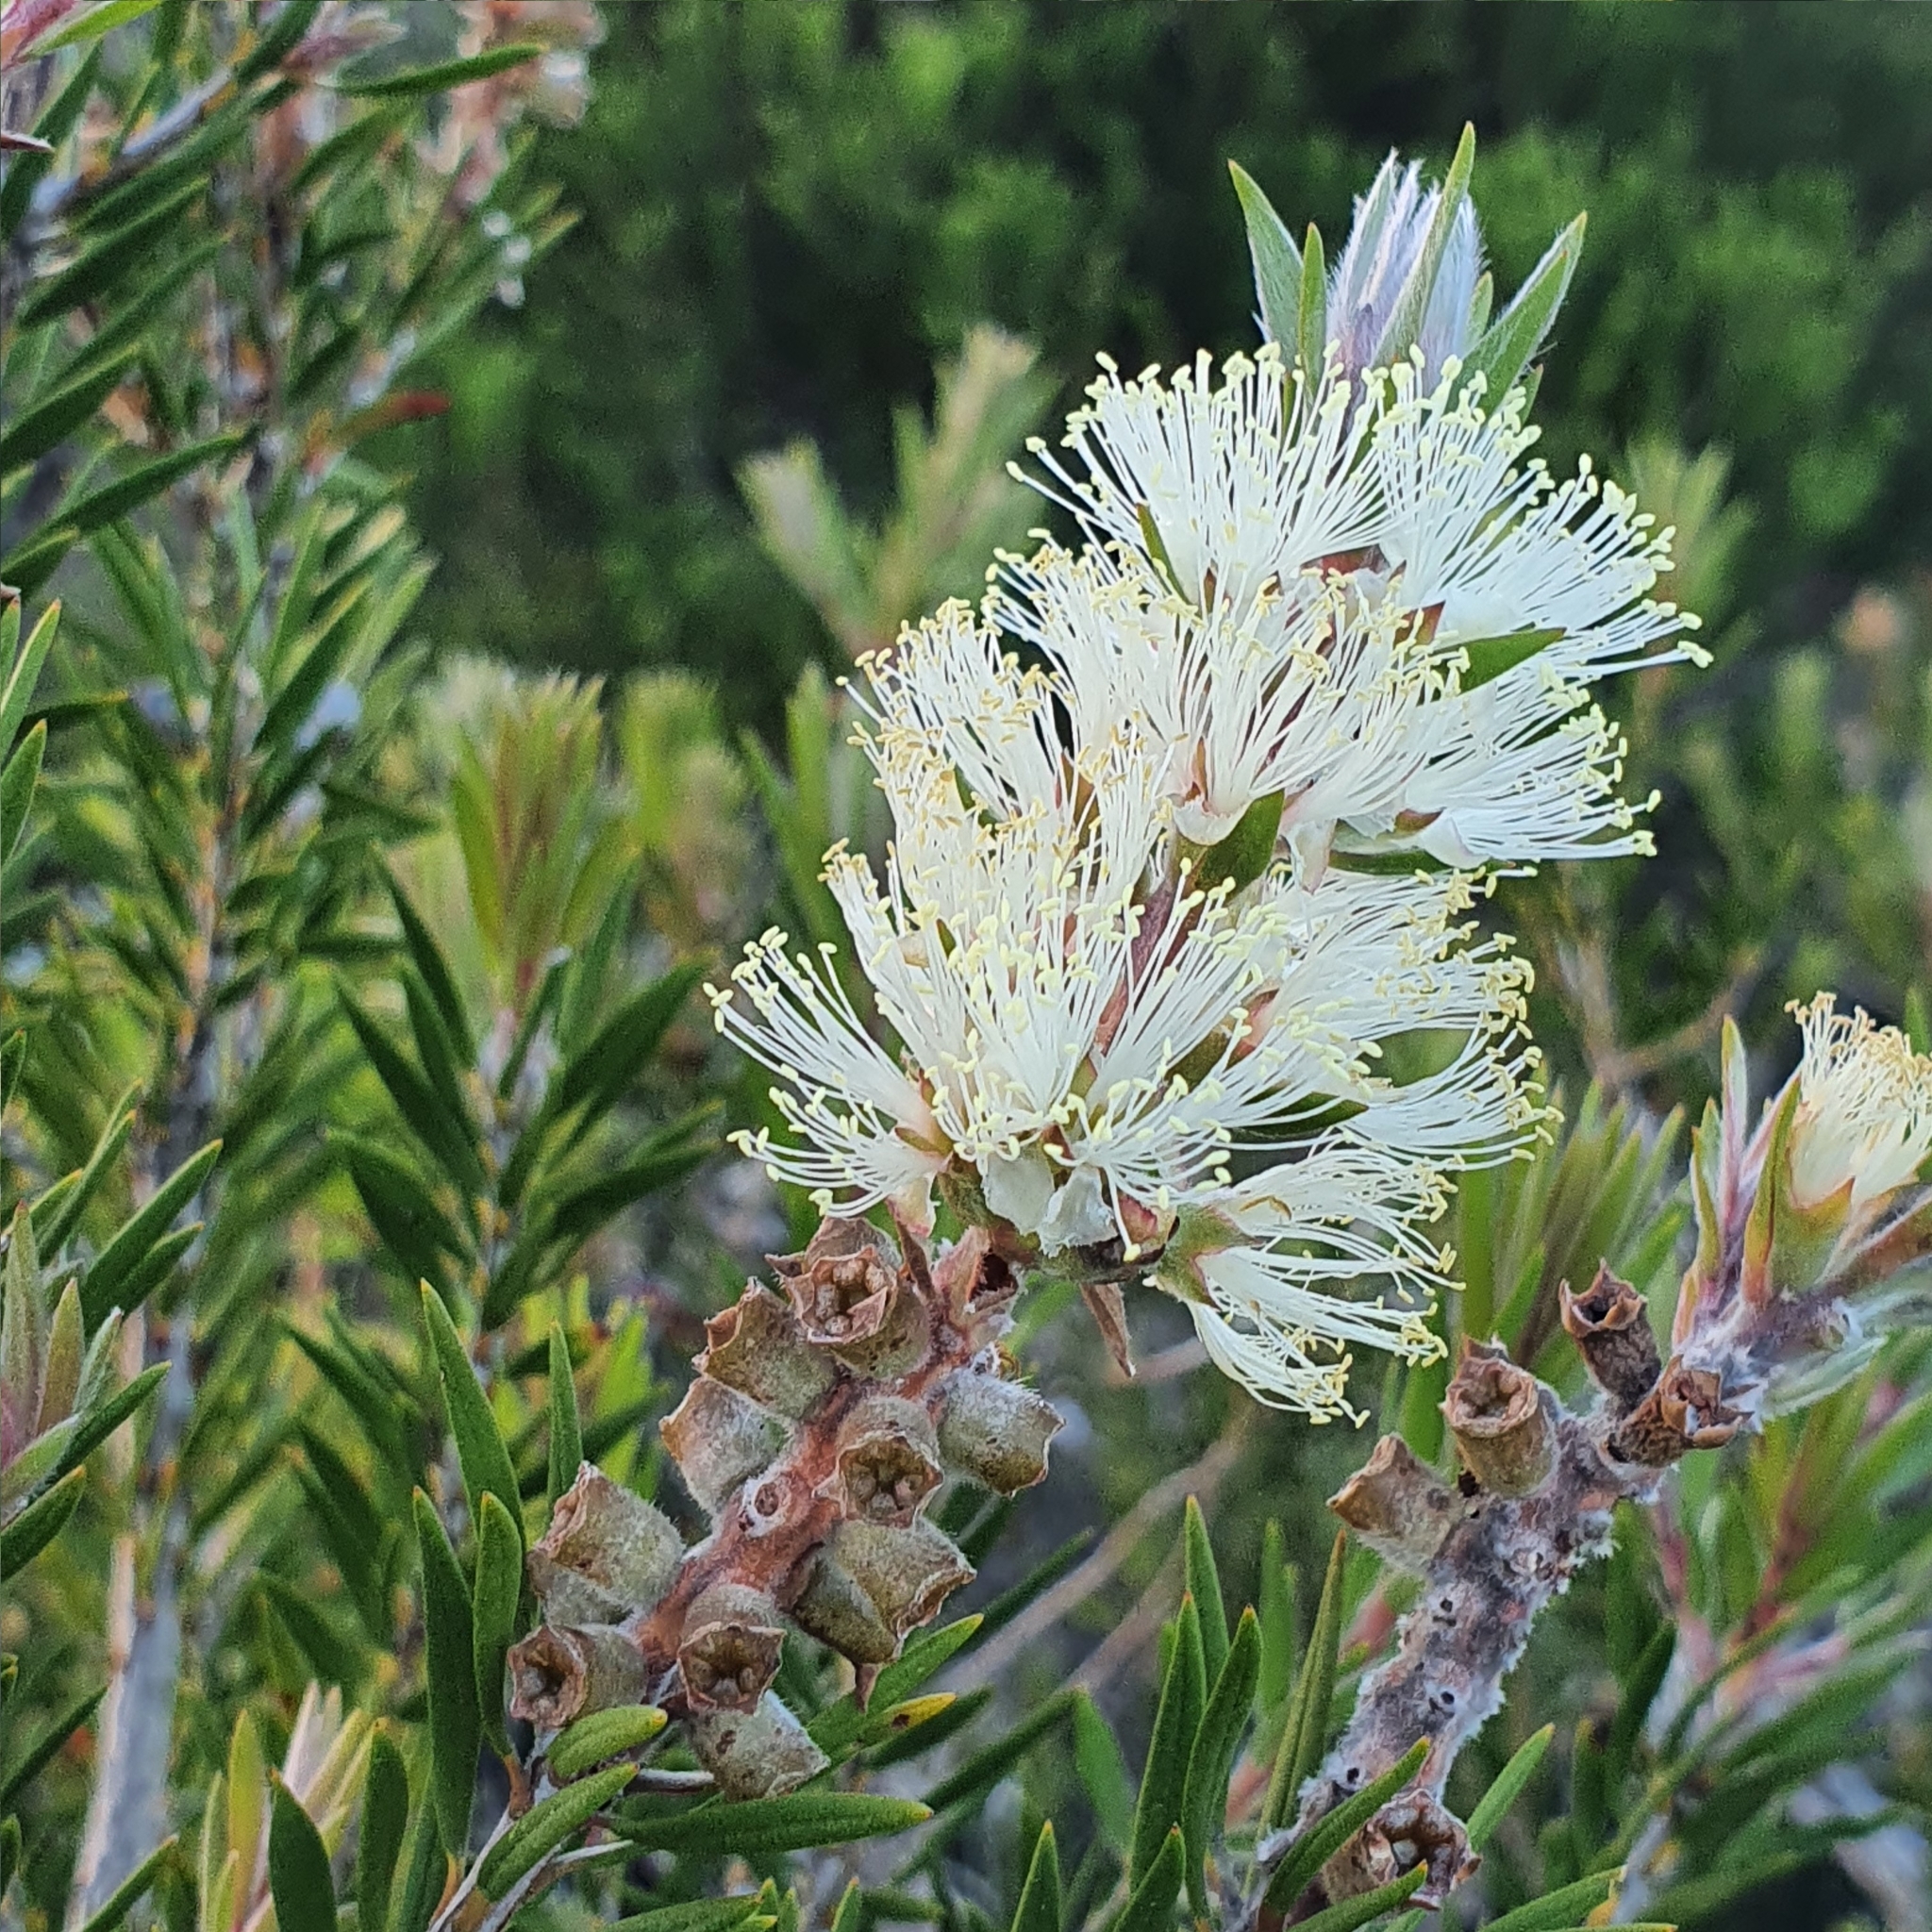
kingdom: Plantae
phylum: Tracheophyta
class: Magnoliopsida
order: Myrtales
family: Myrtaceae
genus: Melaleuca
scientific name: Melaleuca capitata
